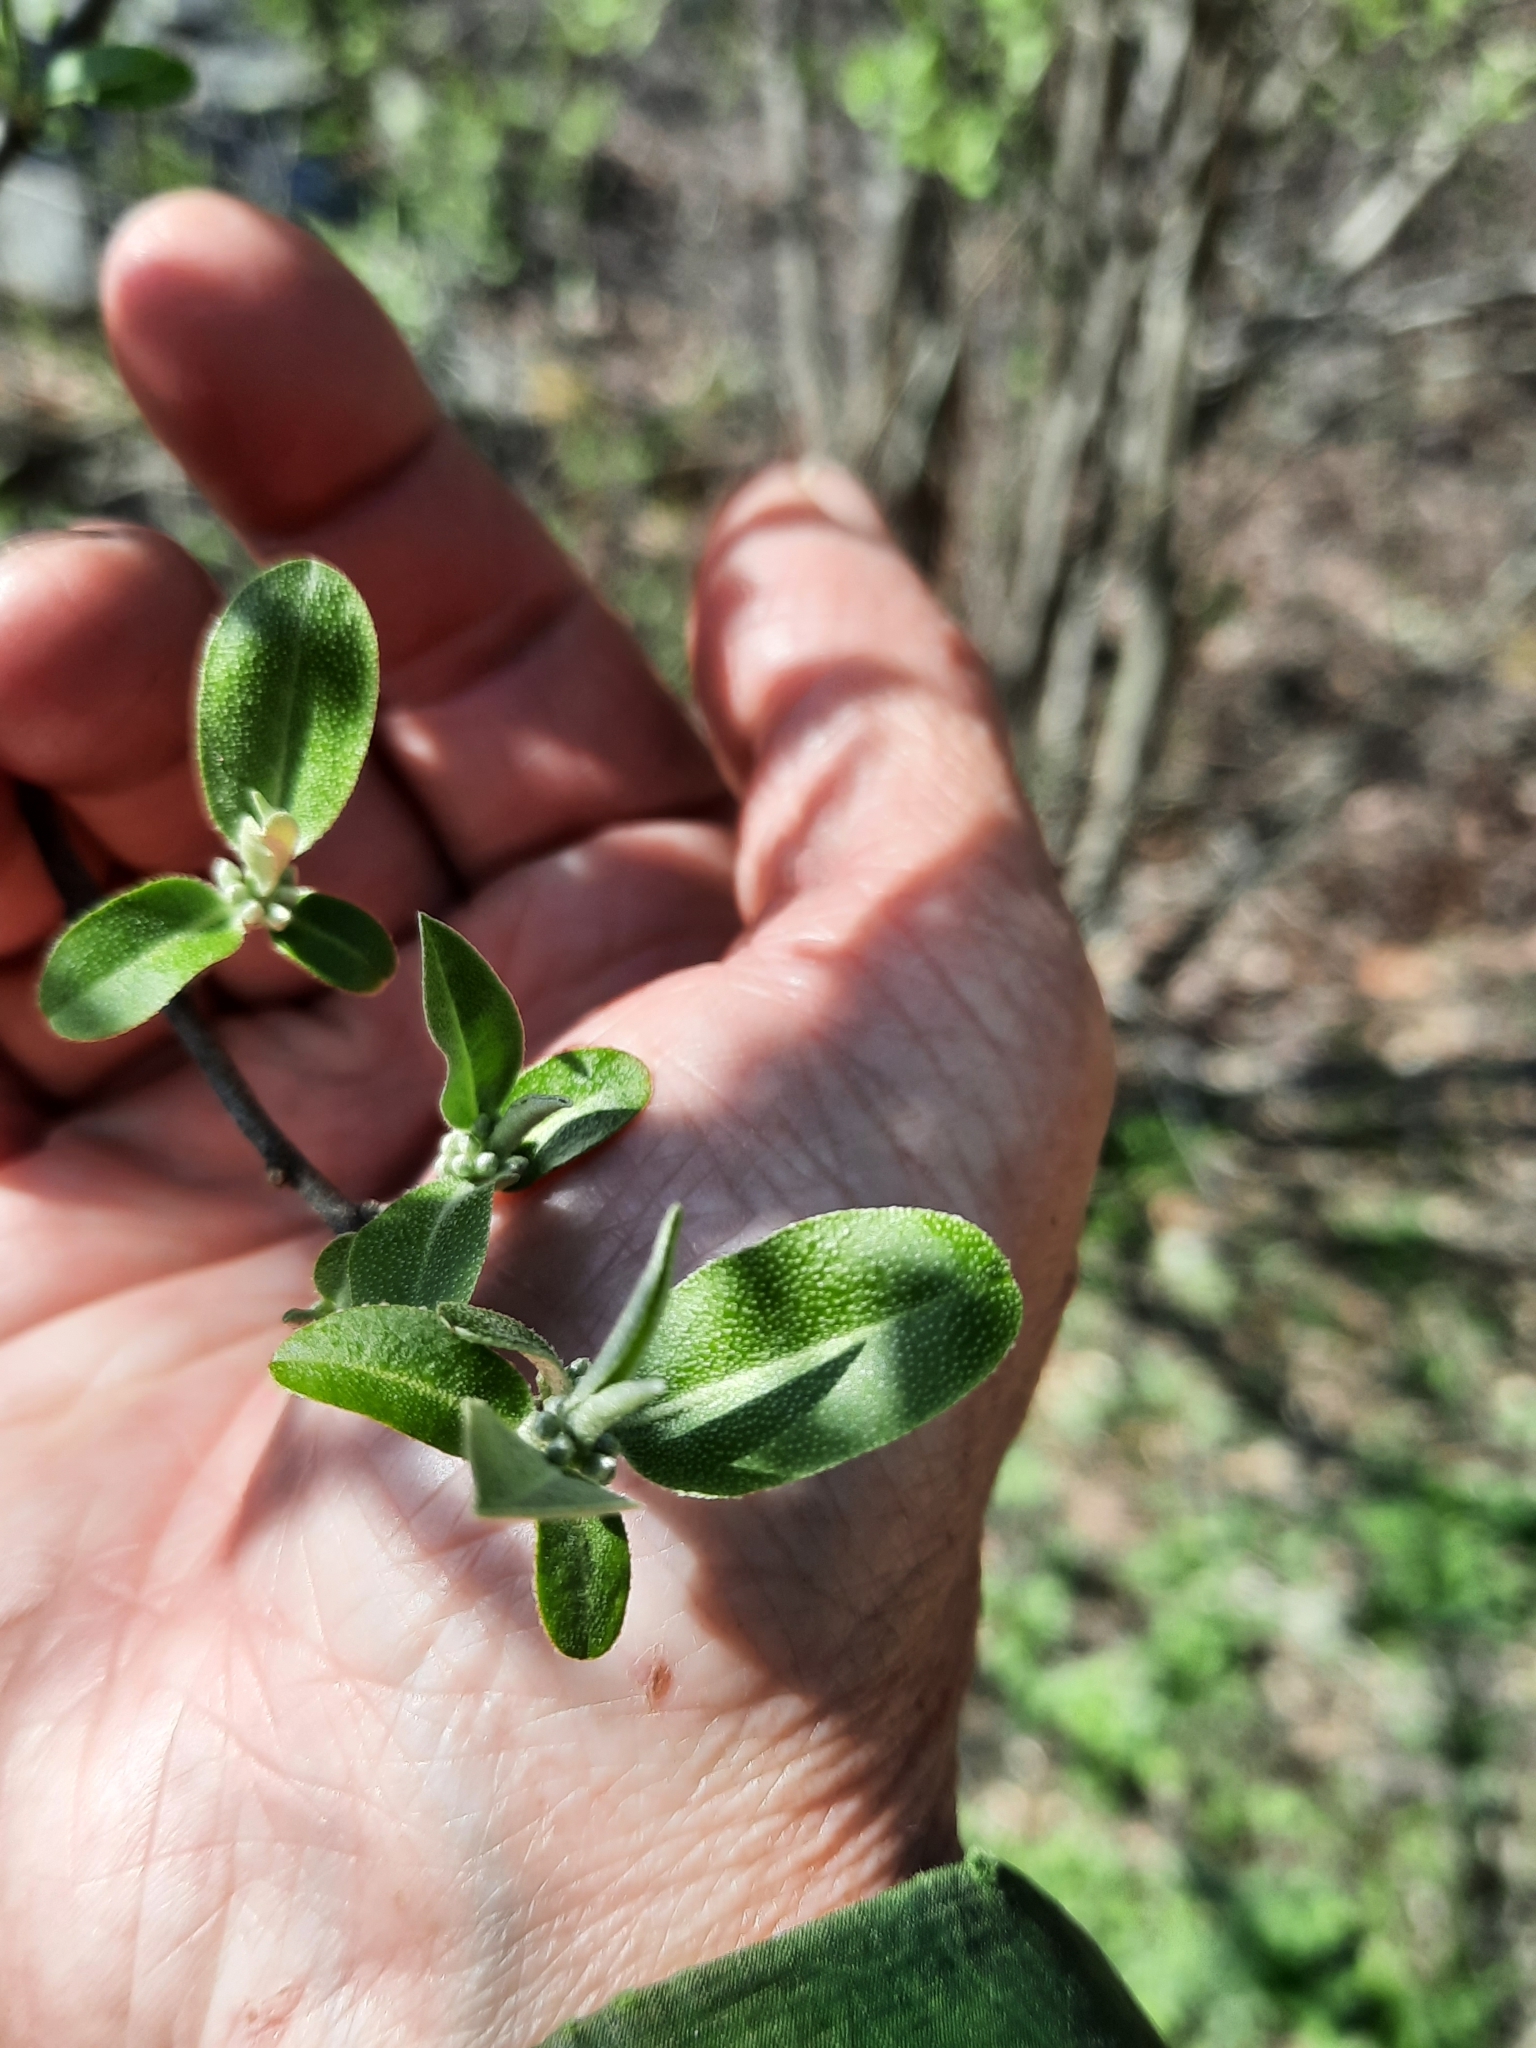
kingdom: Plantae
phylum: Tracheophyta
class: Magnoliopsida
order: Rosales
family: Elaeagnaceae
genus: Elaeagnus
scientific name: Elaeagnus umbellata
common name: Autumn olive
